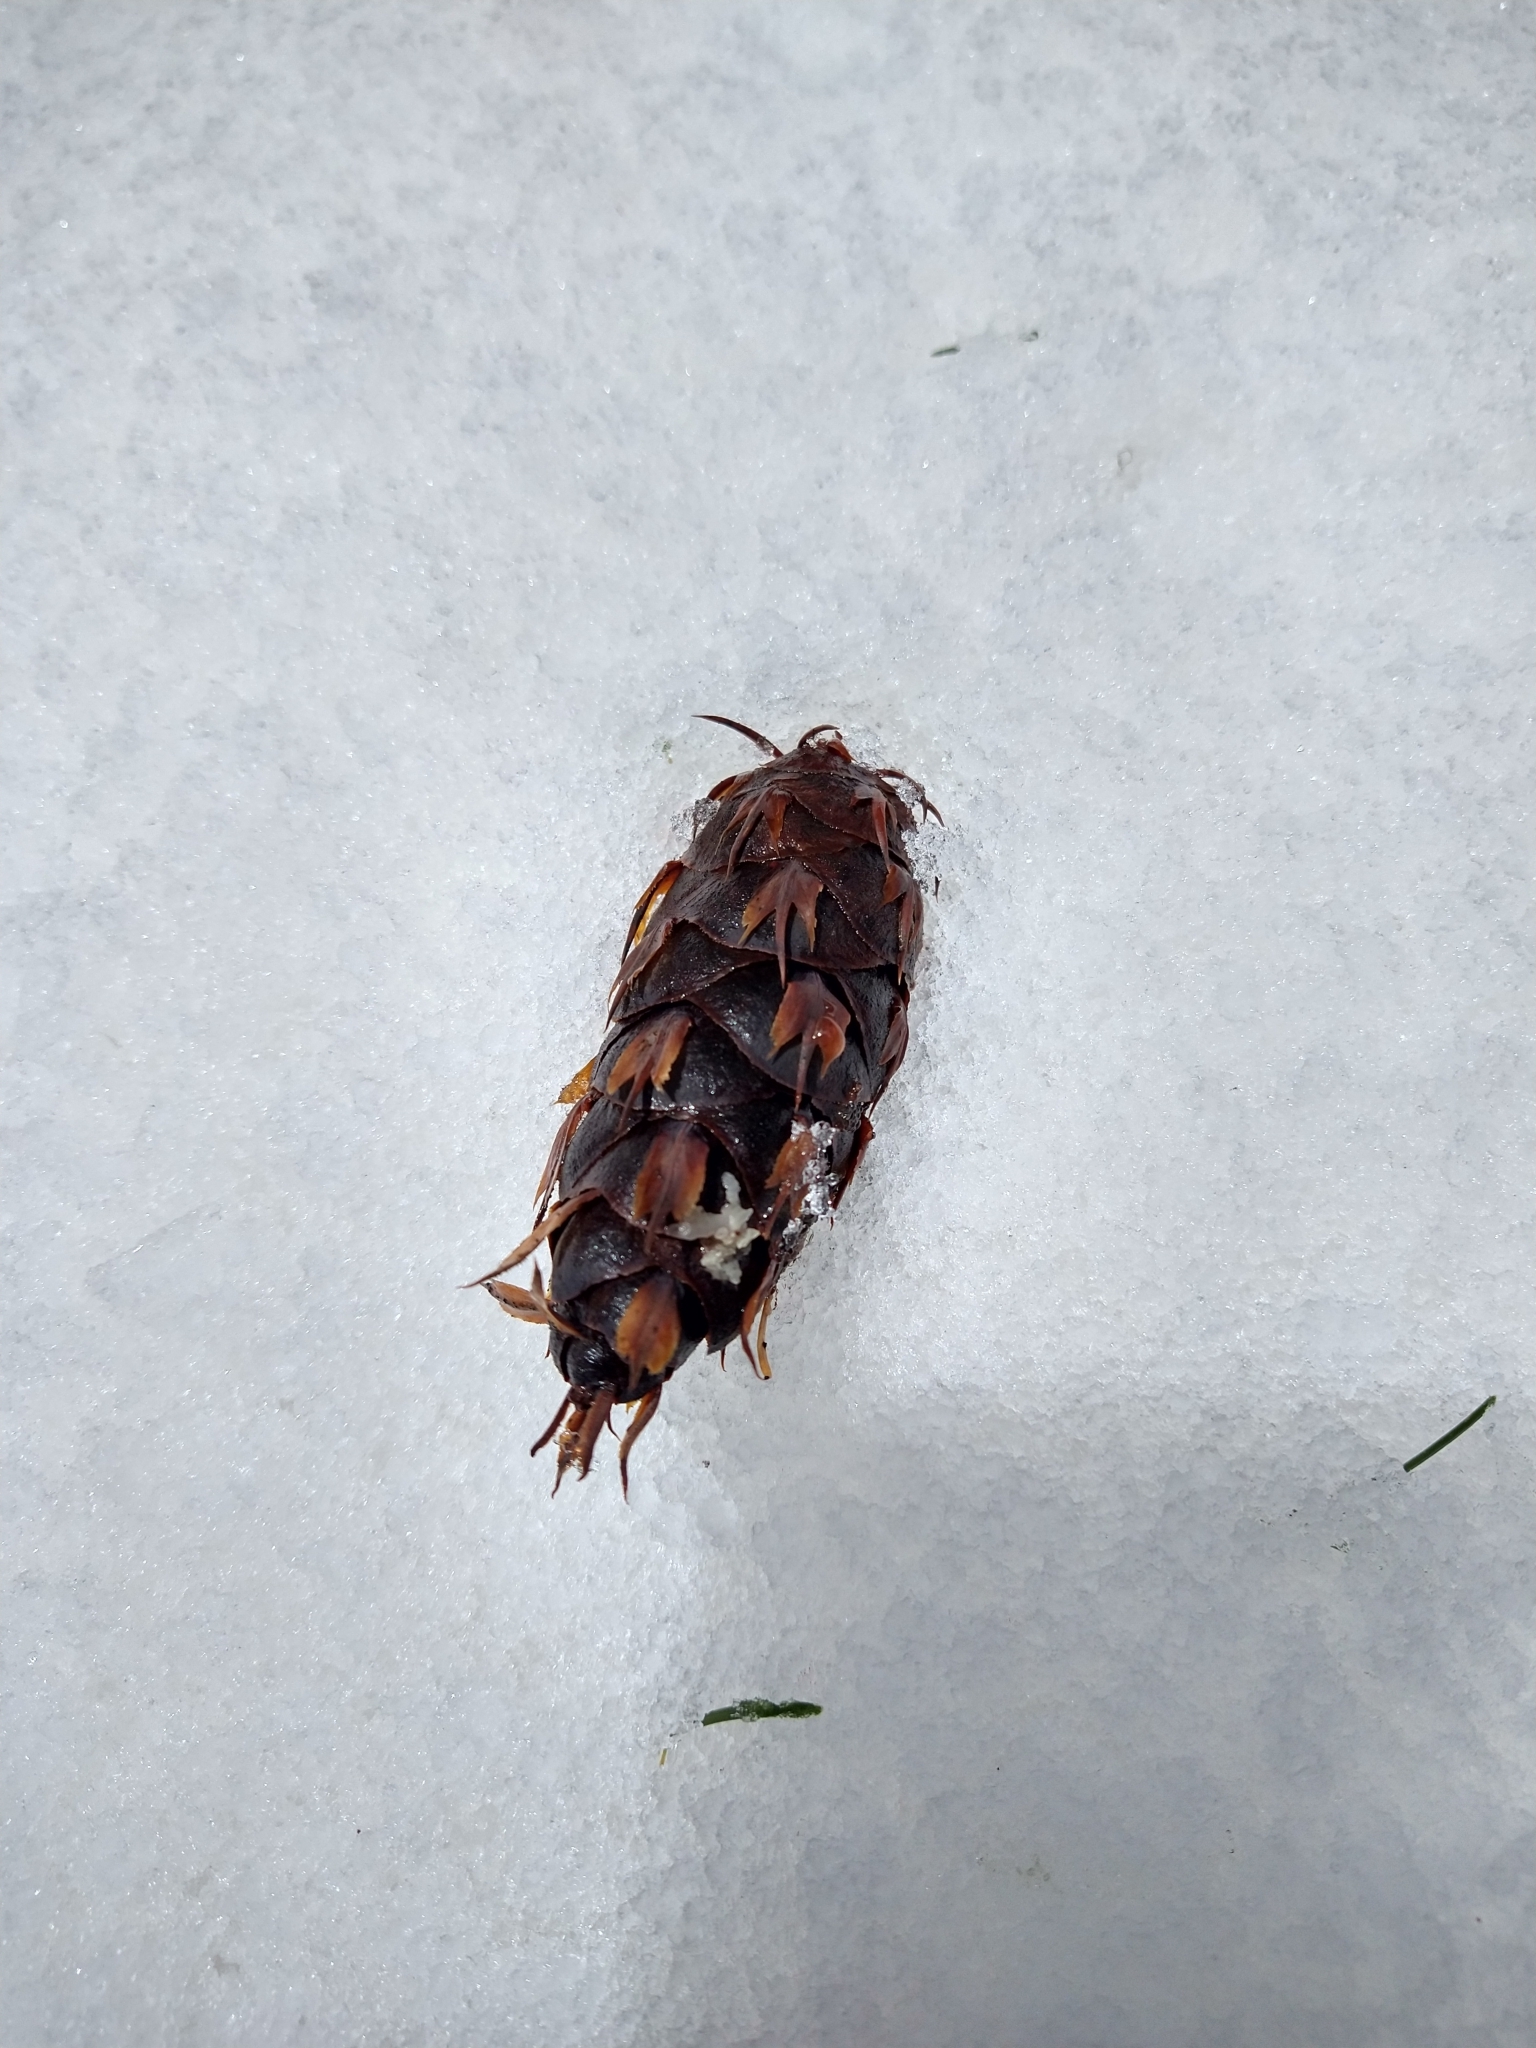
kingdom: Plantae
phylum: Tracheophyta
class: Pinopsida
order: Pinales
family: Pinaceae
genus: Pseudotsuga
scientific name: Pseudotsuga menziesii
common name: Douglas fir
